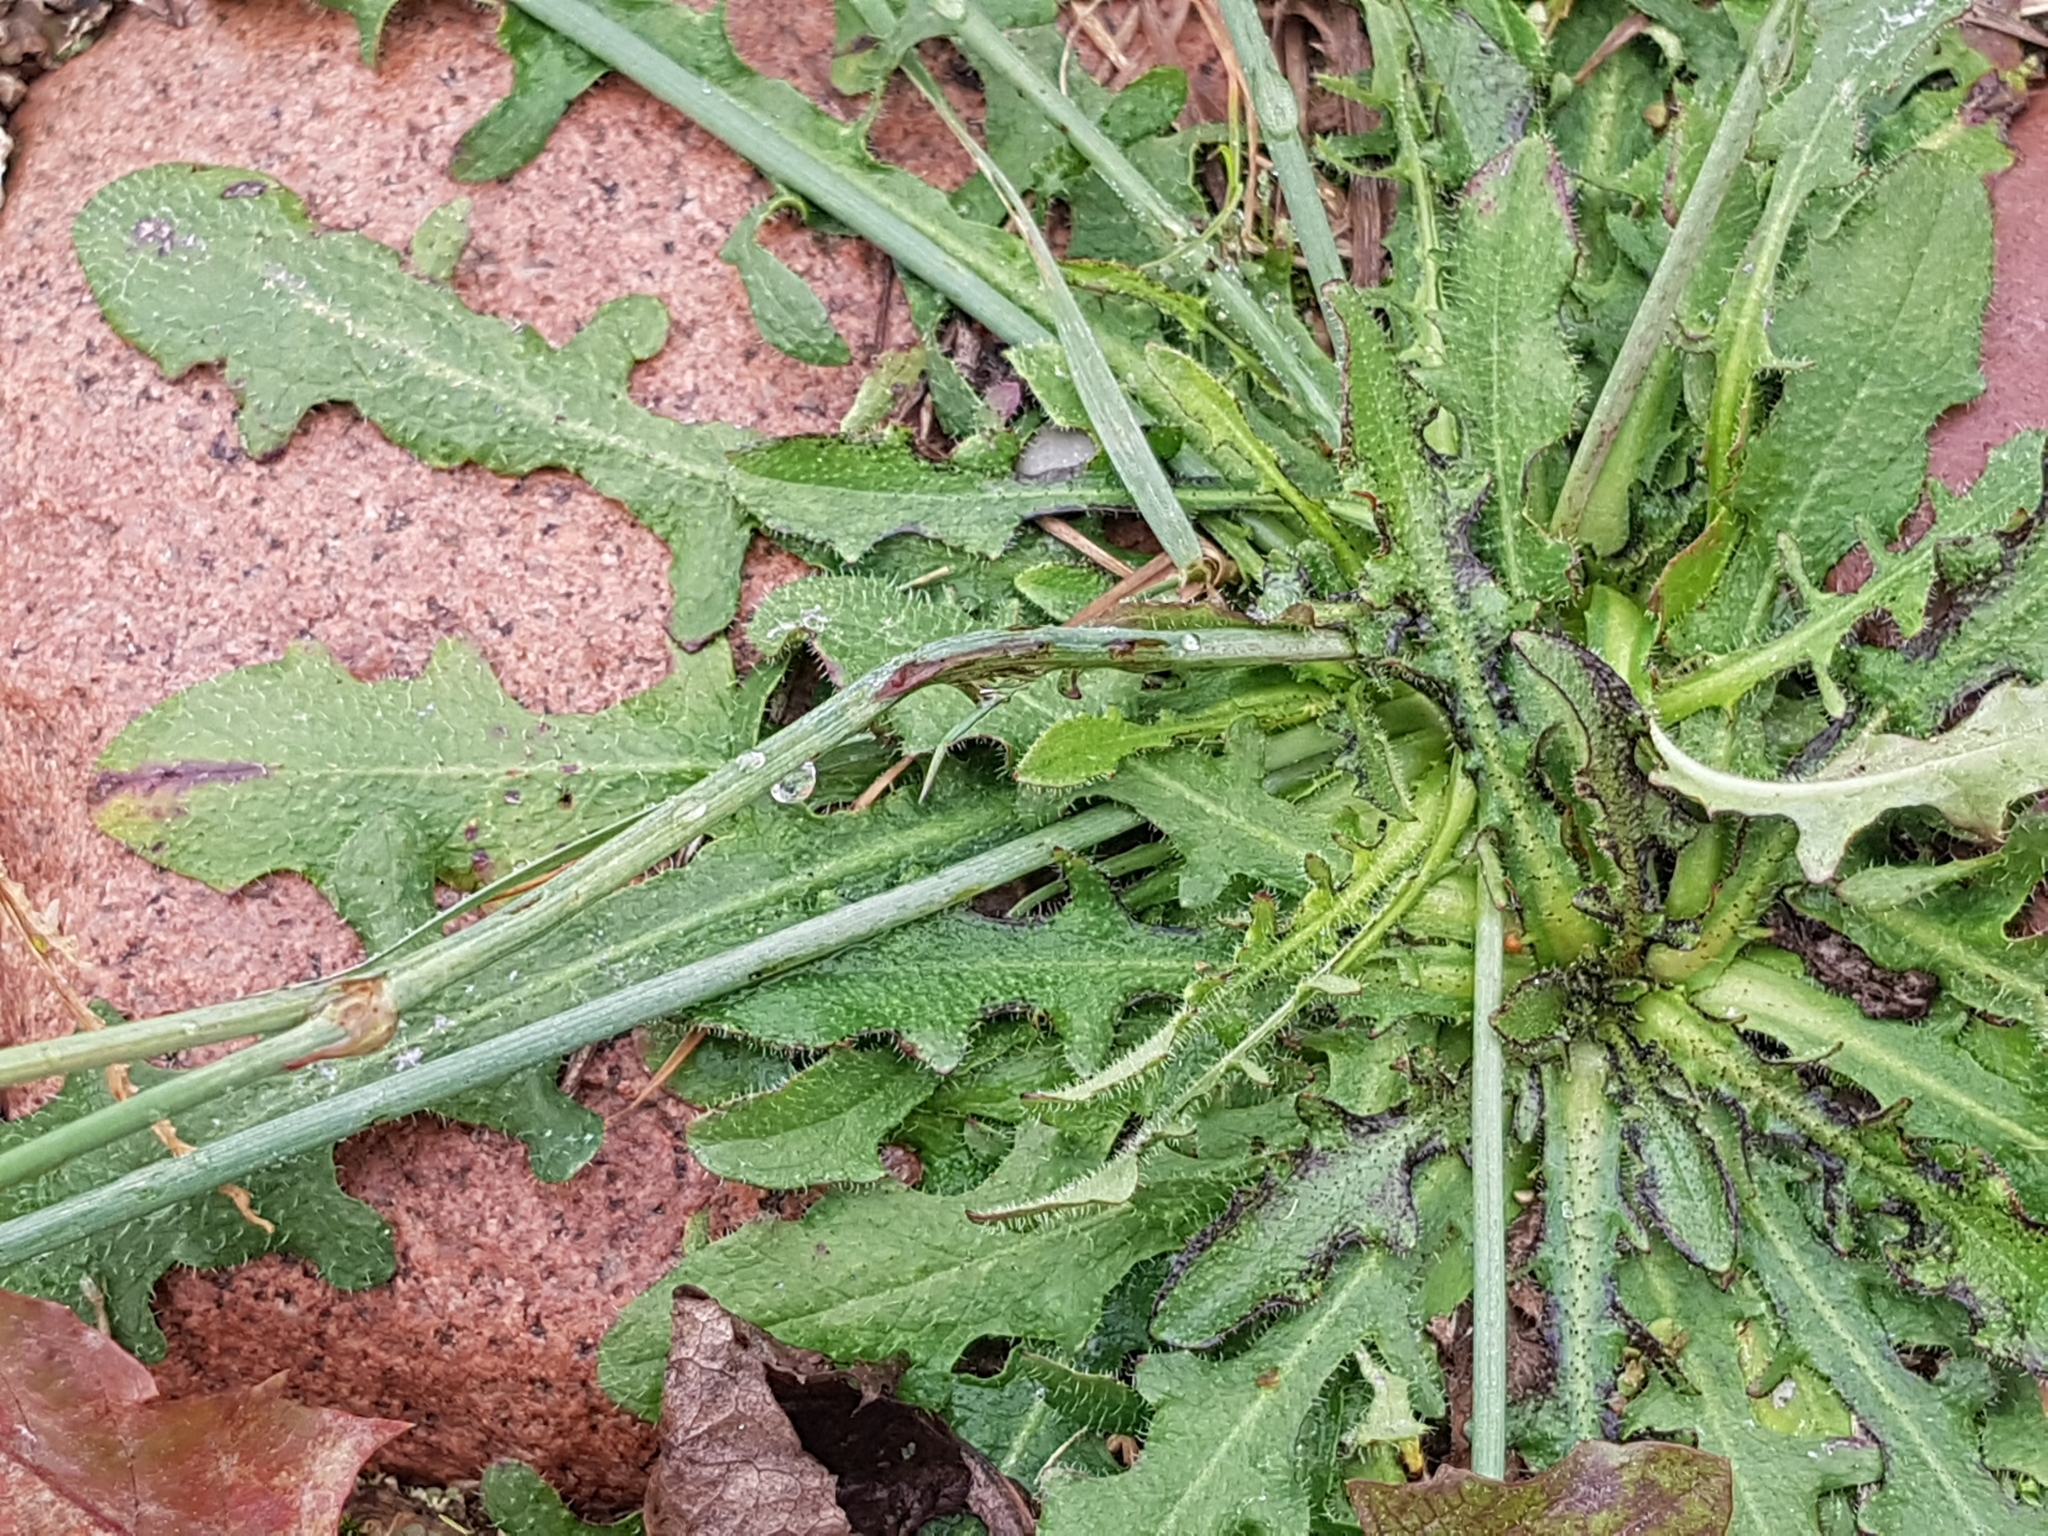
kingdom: Plantae
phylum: Tracheophyta
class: Magnoliopsida
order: Asterales
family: Asteraceae
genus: Hypochaeris
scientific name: Hypochaeris radicata
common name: Flatweed
